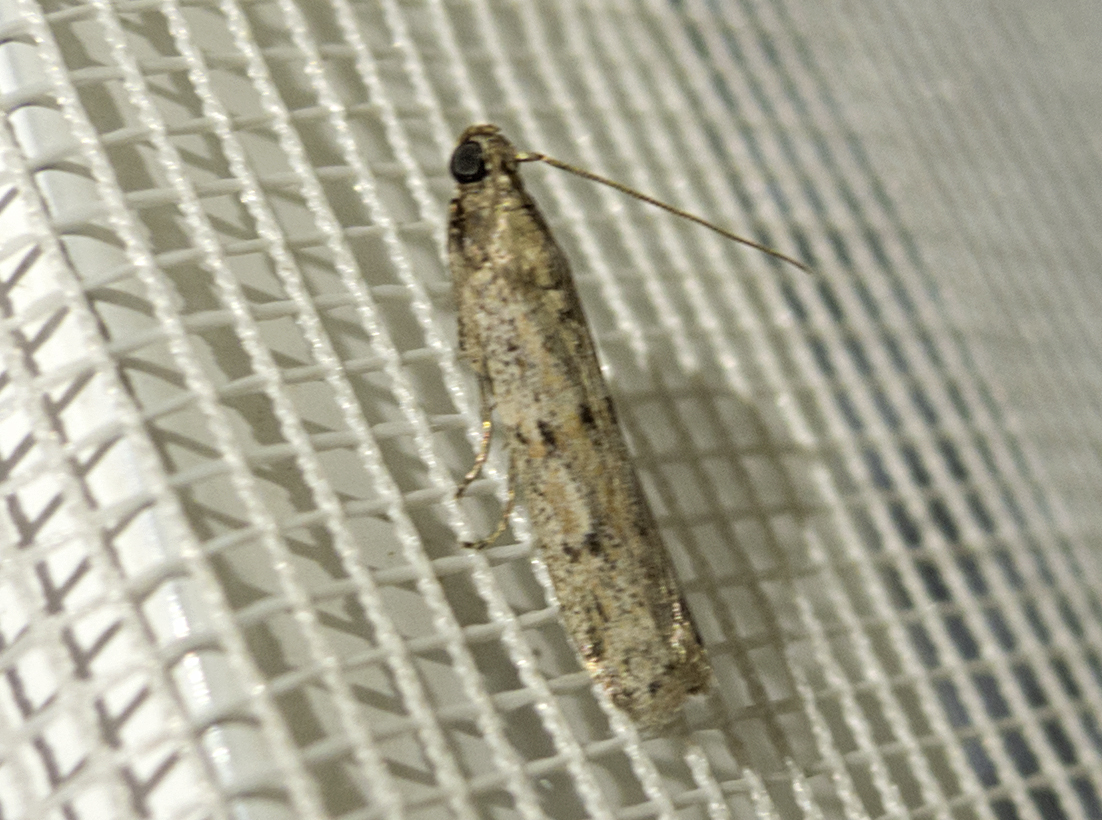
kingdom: Animalia
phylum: Arthropoda
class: Insecta
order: Lepidoptera
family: Pyralidae
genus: Cadra
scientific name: Cadra
